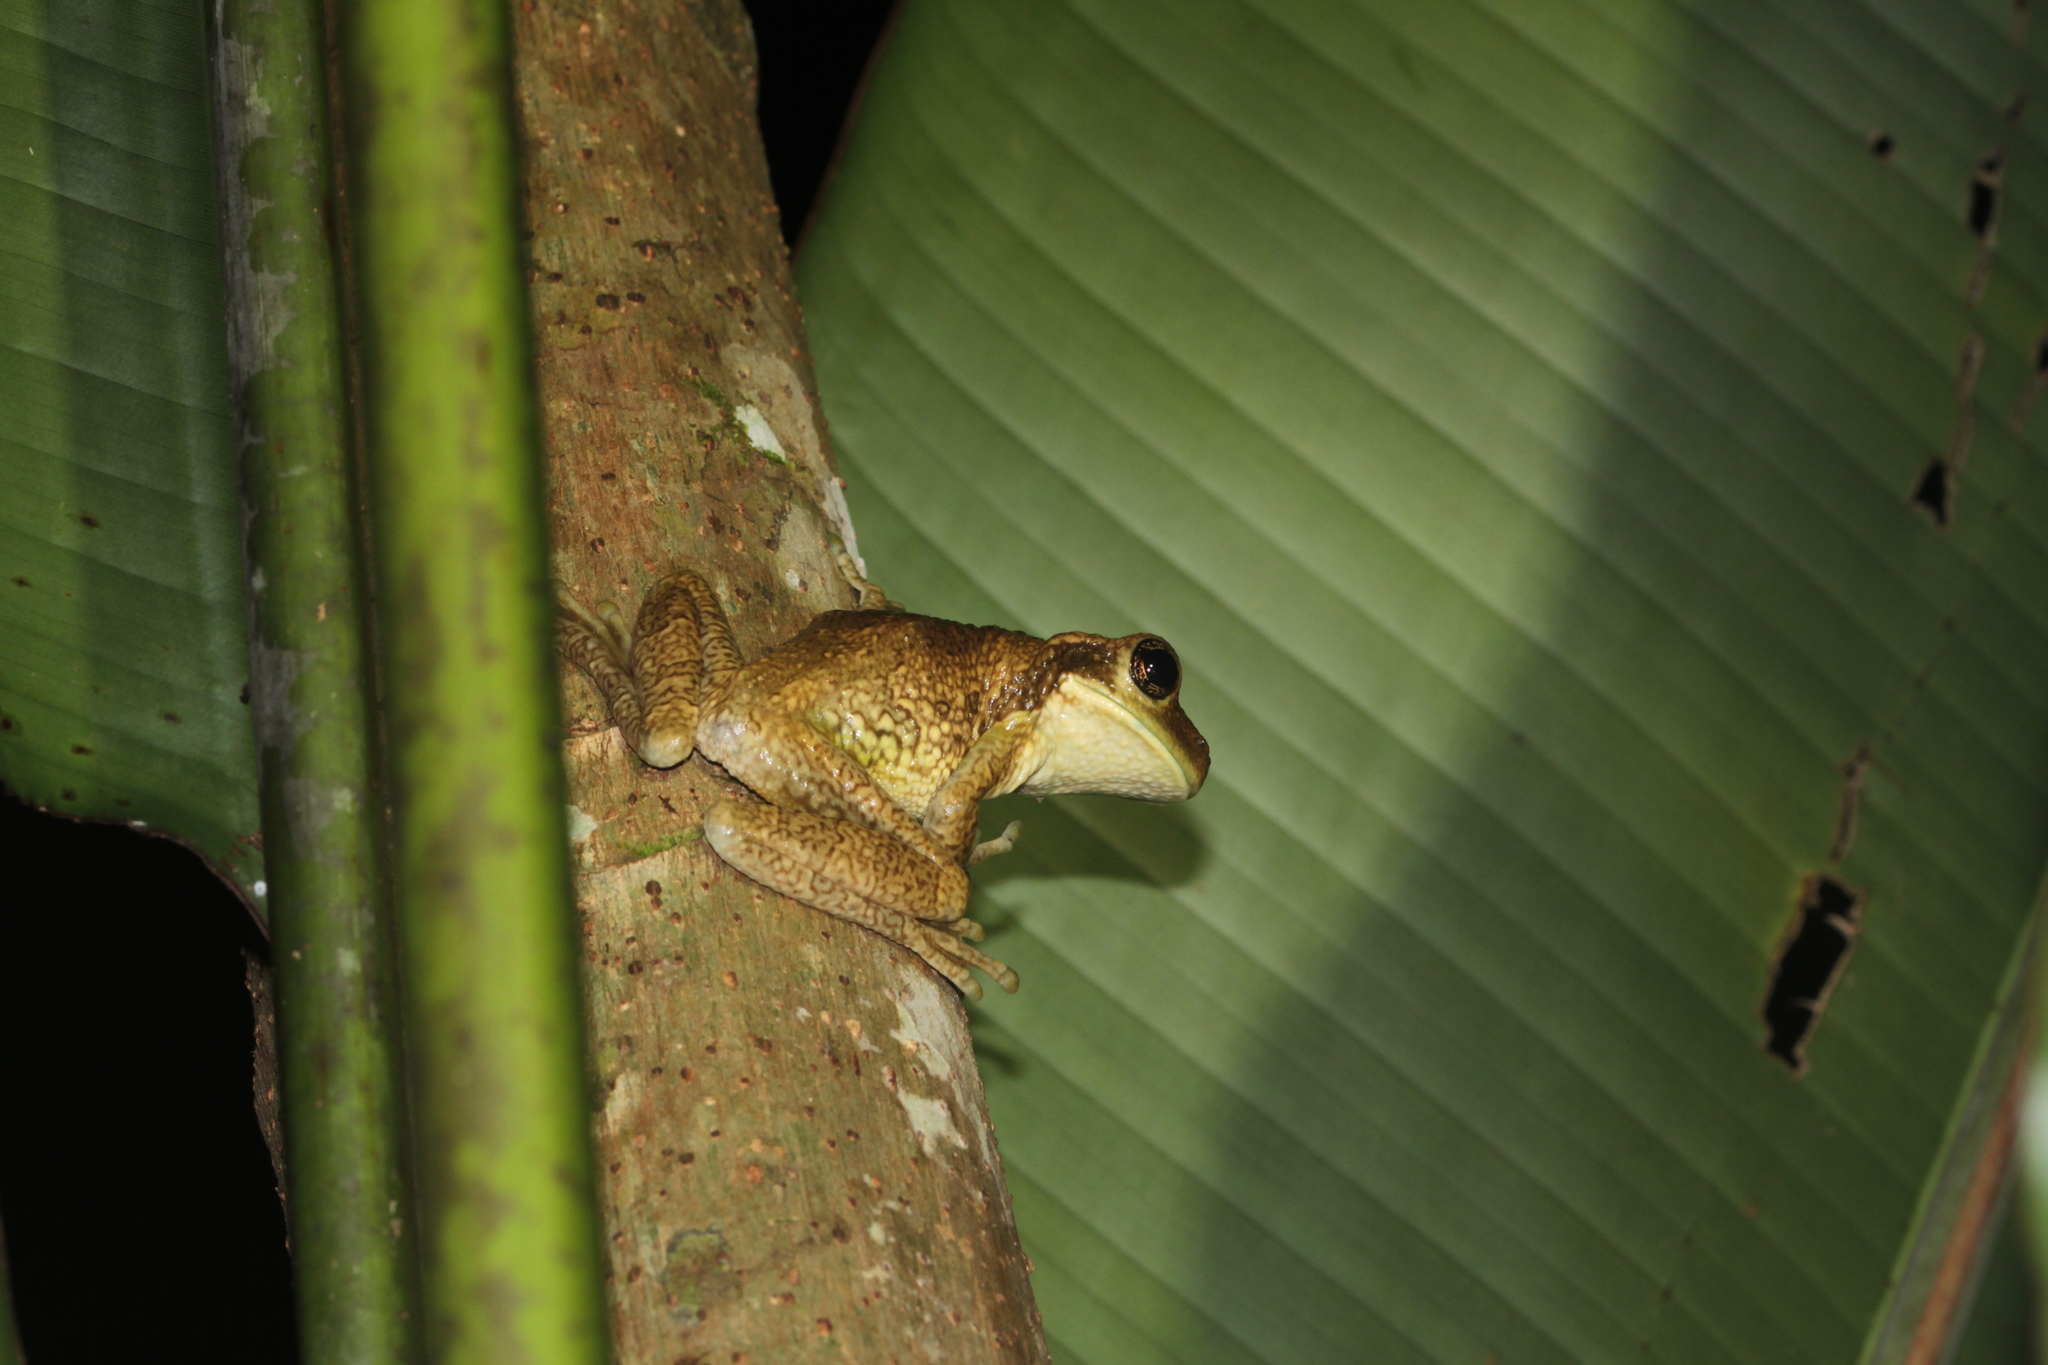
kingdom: Animalia
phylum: Chordata
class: Amphibia
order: Anura
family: Hylidae
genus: Trachycephalus
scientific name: Trachycephalus typhonius
